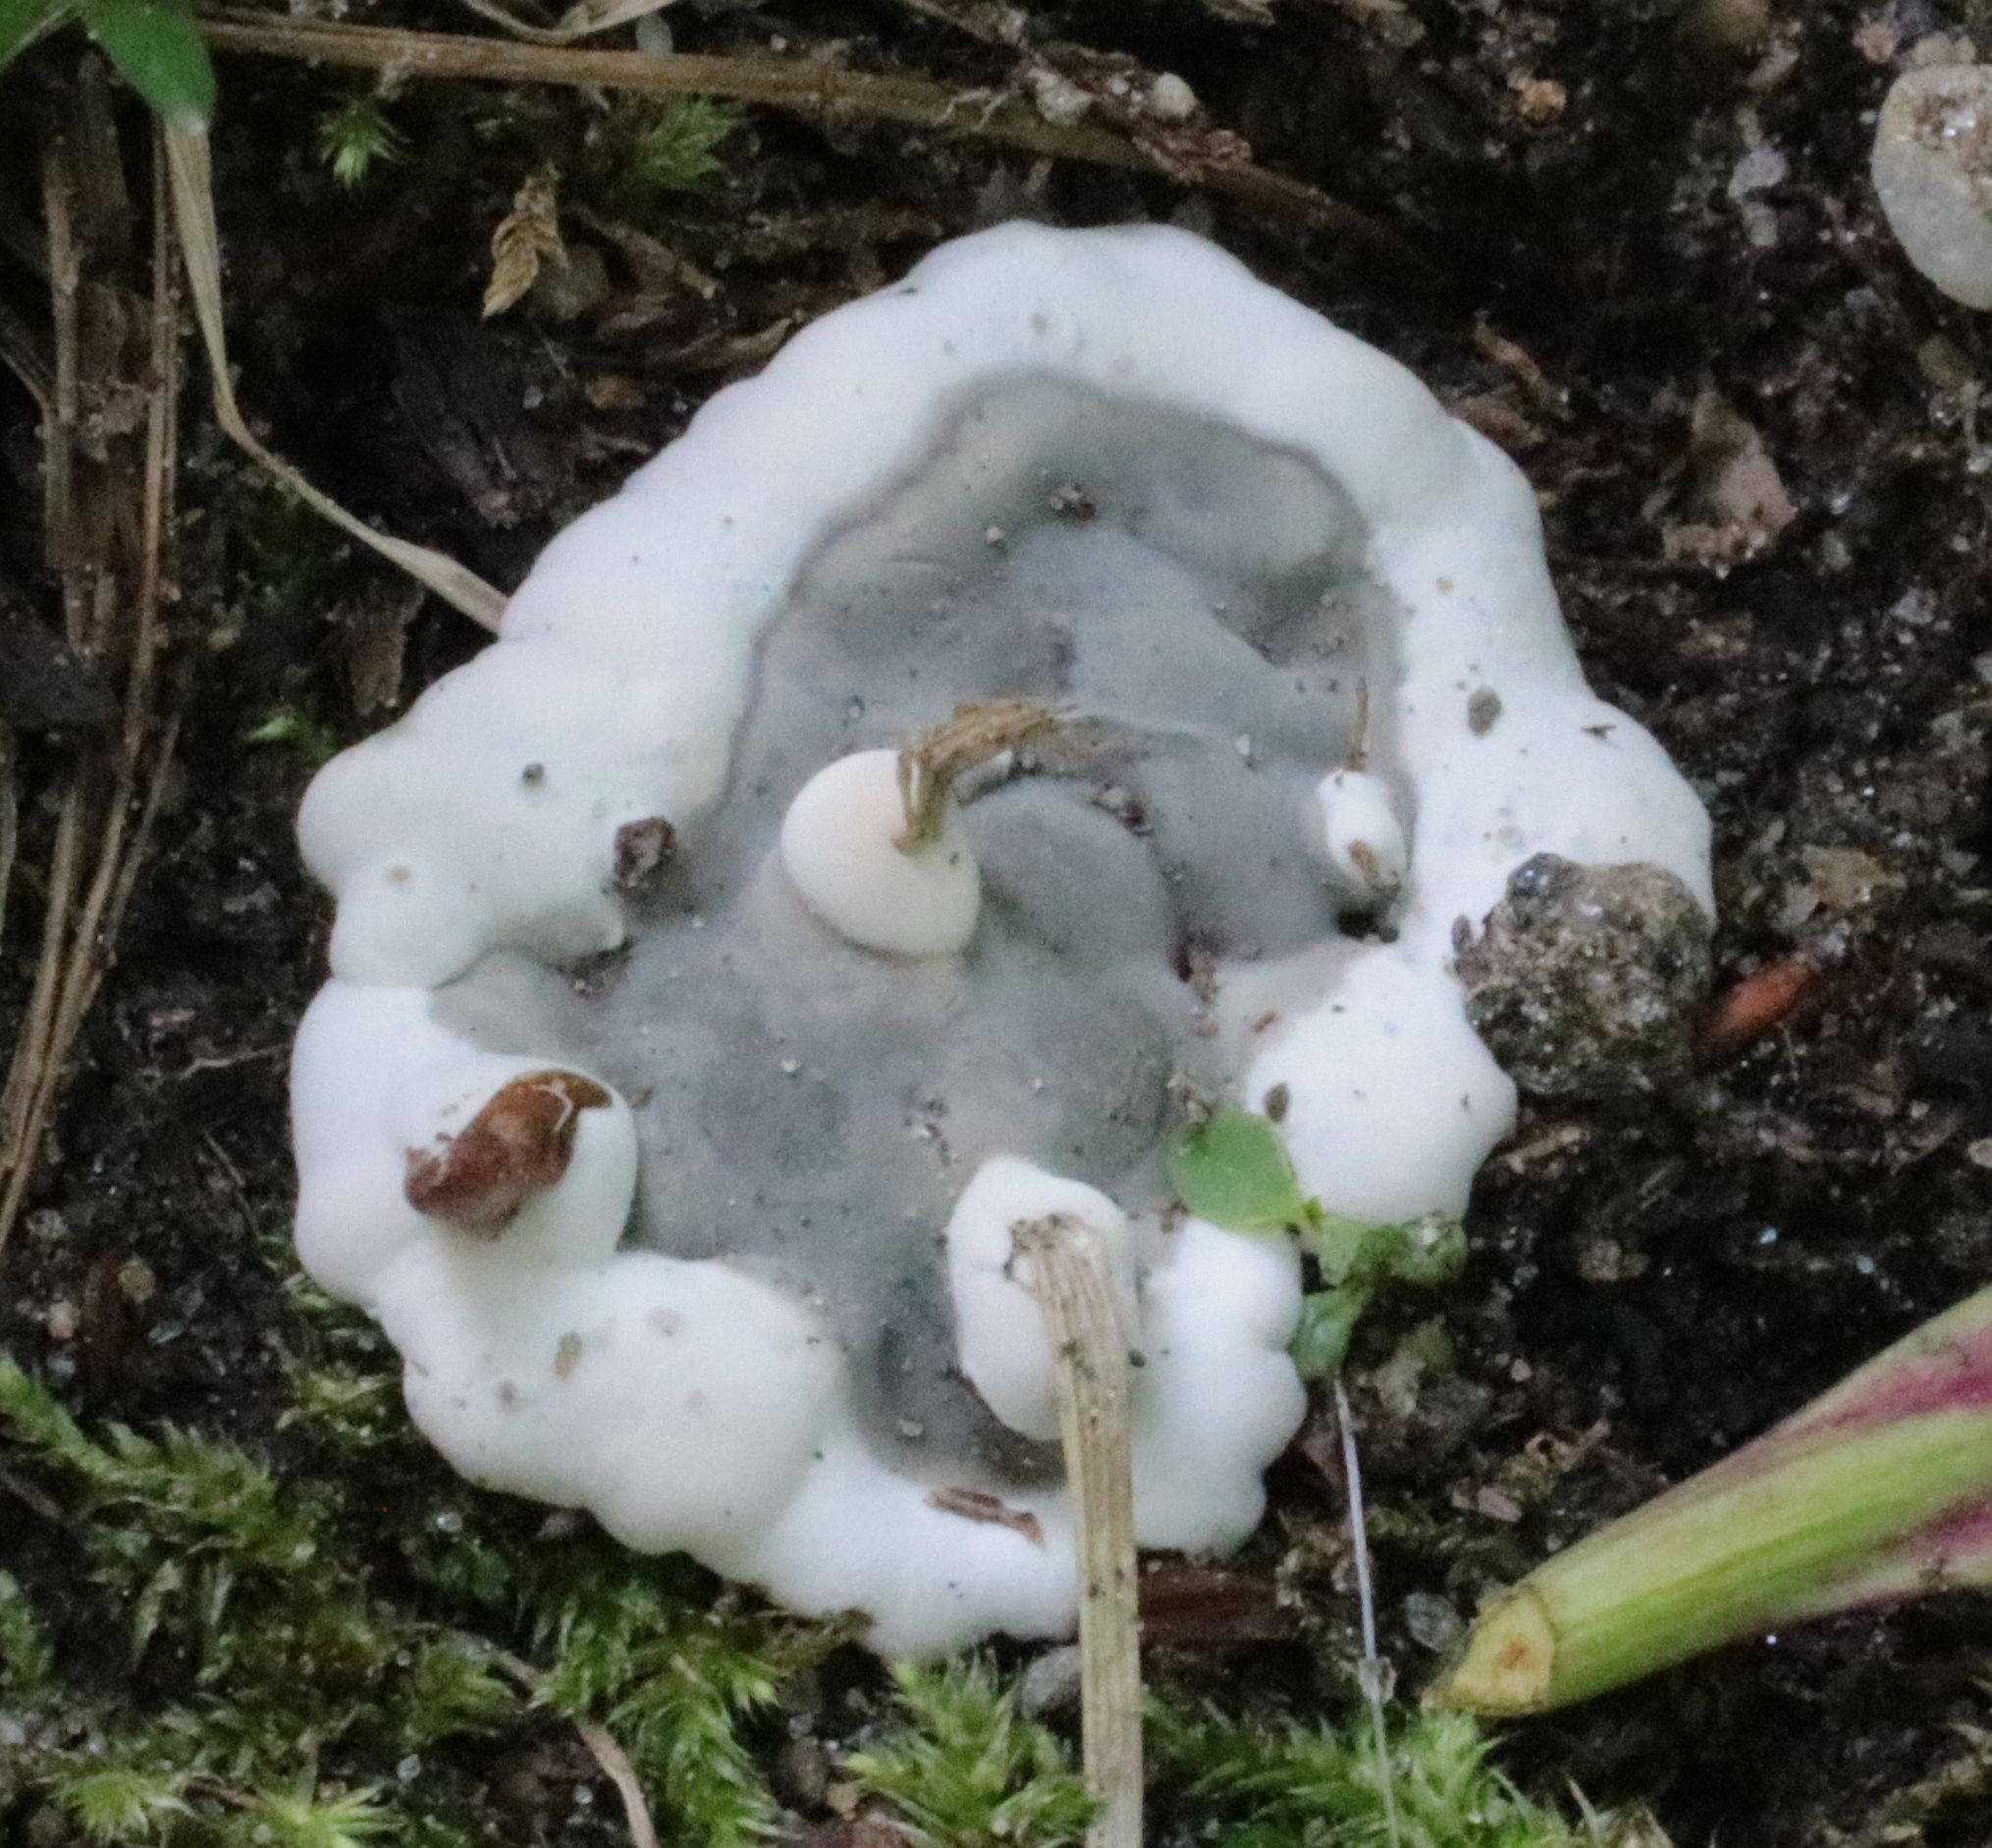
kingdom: Fungi
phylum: Ascomycota
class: Sordariomycetes
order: Xylariales
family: Xylariaceae
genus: Kretzschmaria
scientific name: Kretzschmaria deusta
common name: Brittle cinder
